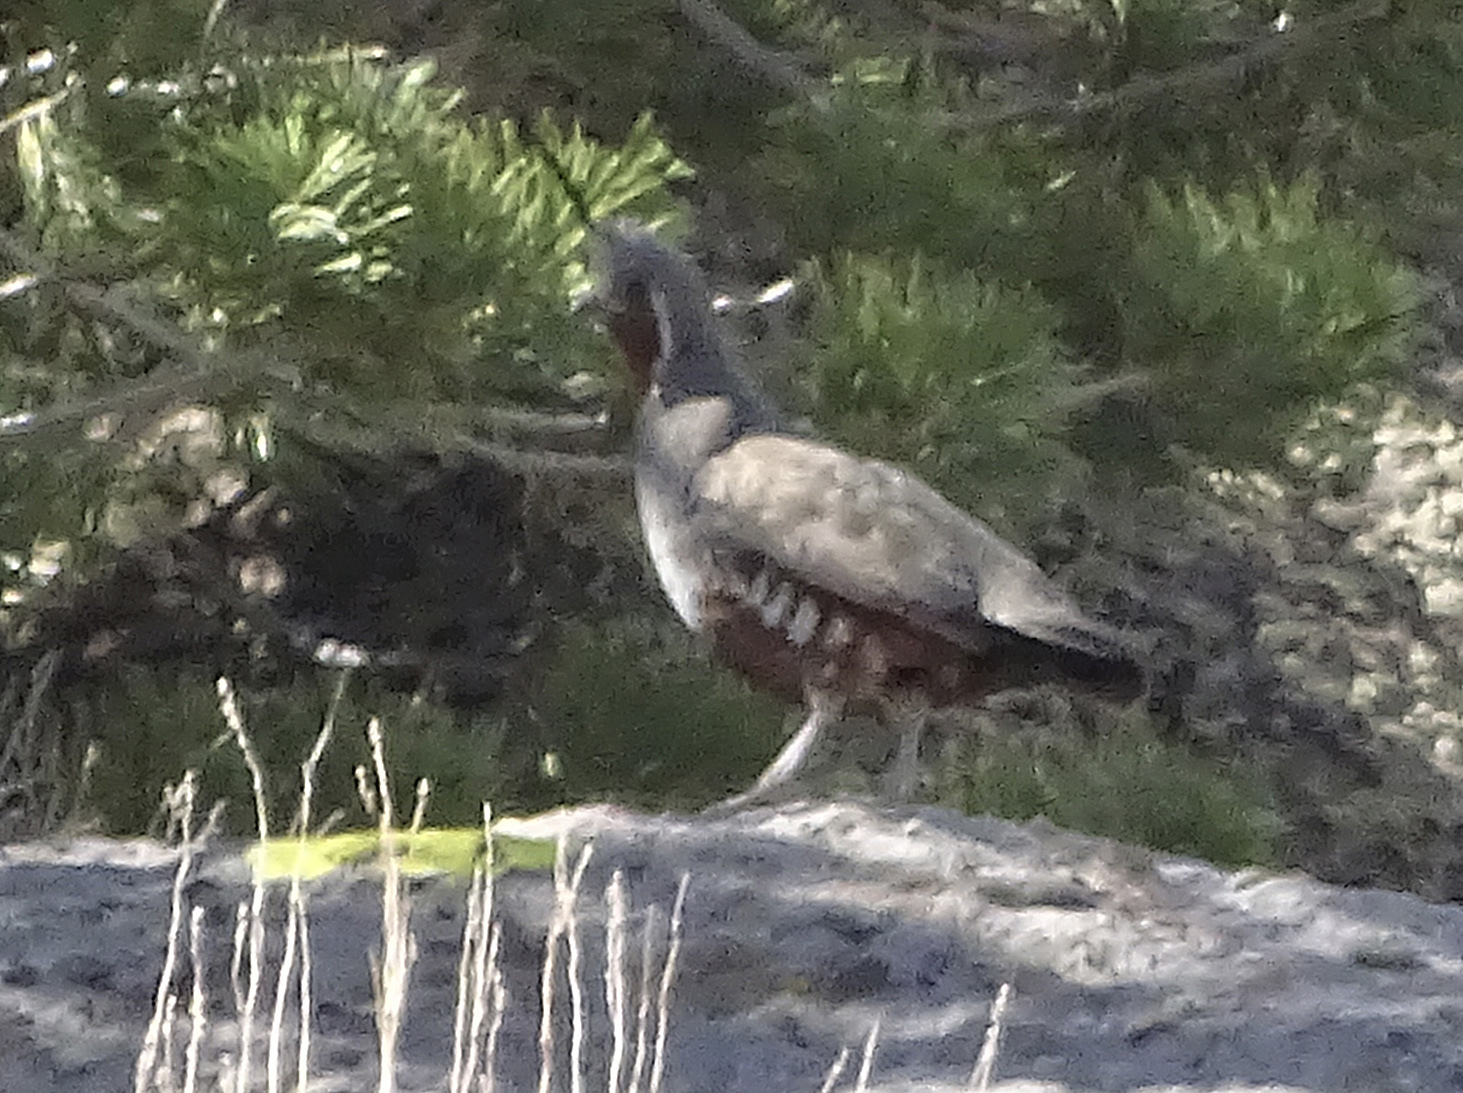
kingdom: Animalia
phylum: Chordata
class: Aves
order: Galliformes
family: Odontophoridae
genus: Oreortyx
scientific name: Oreortyx pictus
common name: Mountain quail
